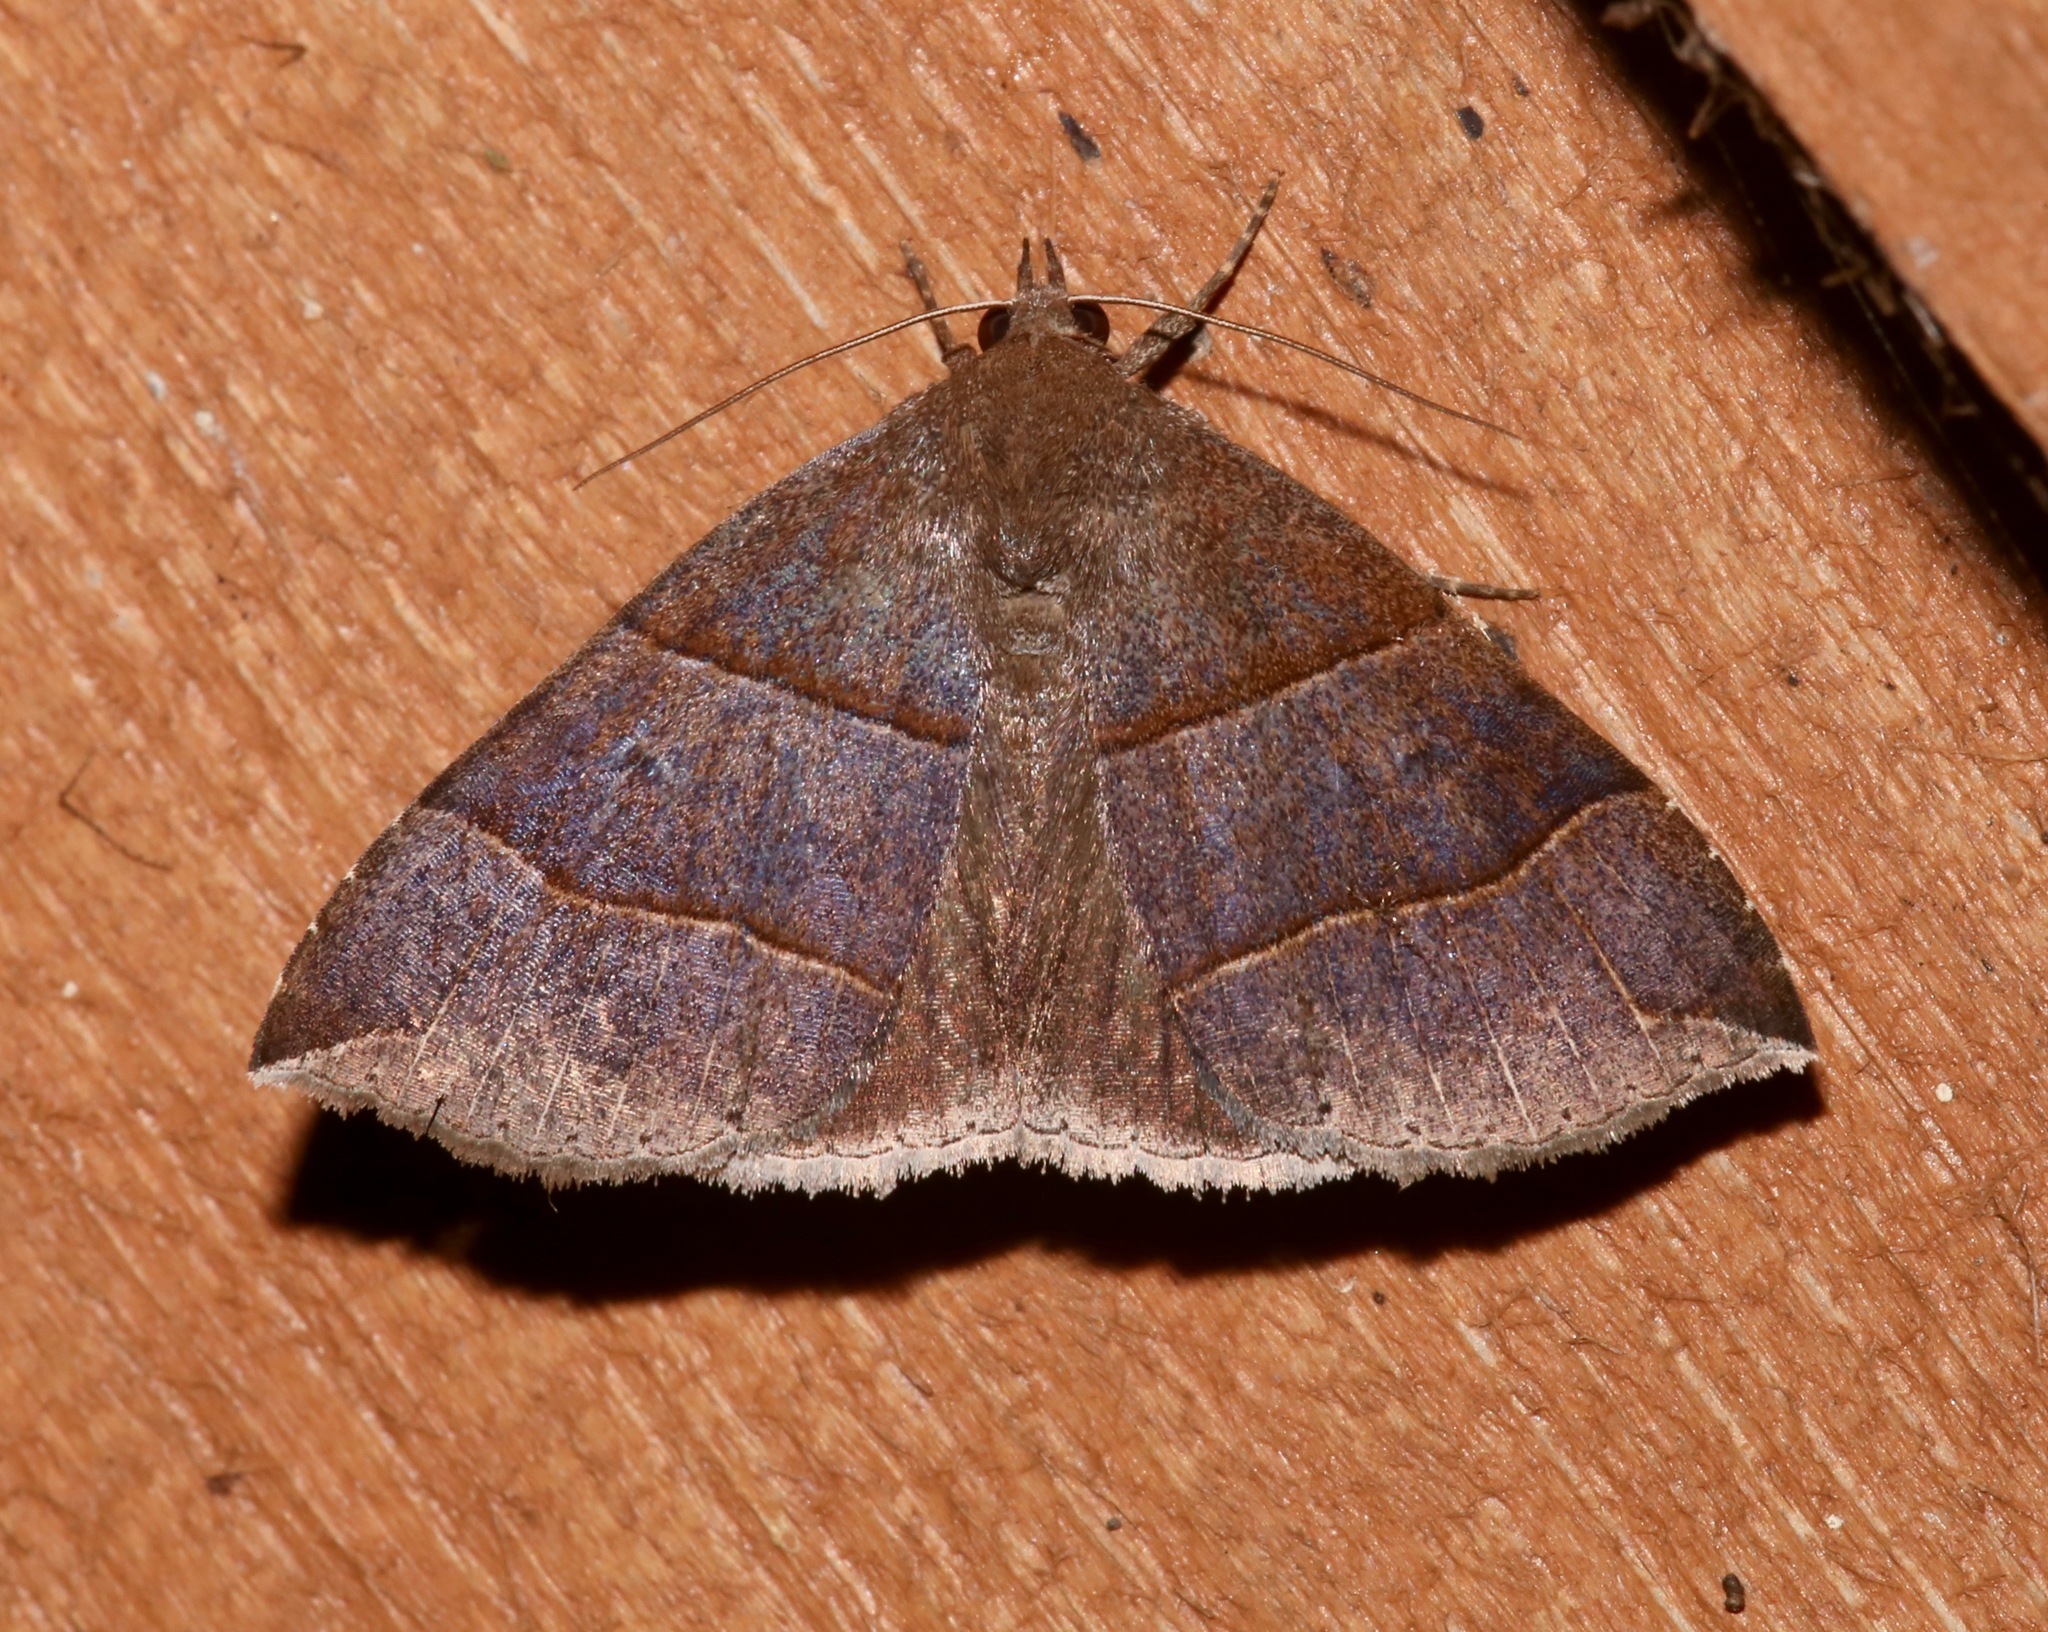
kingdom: Animalia
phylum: Arthropoda
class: Insecta
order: Lepidoptera
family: Erebidae
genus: Parallelia
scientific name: Parallelia bistriaris
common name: Maple looper moth
